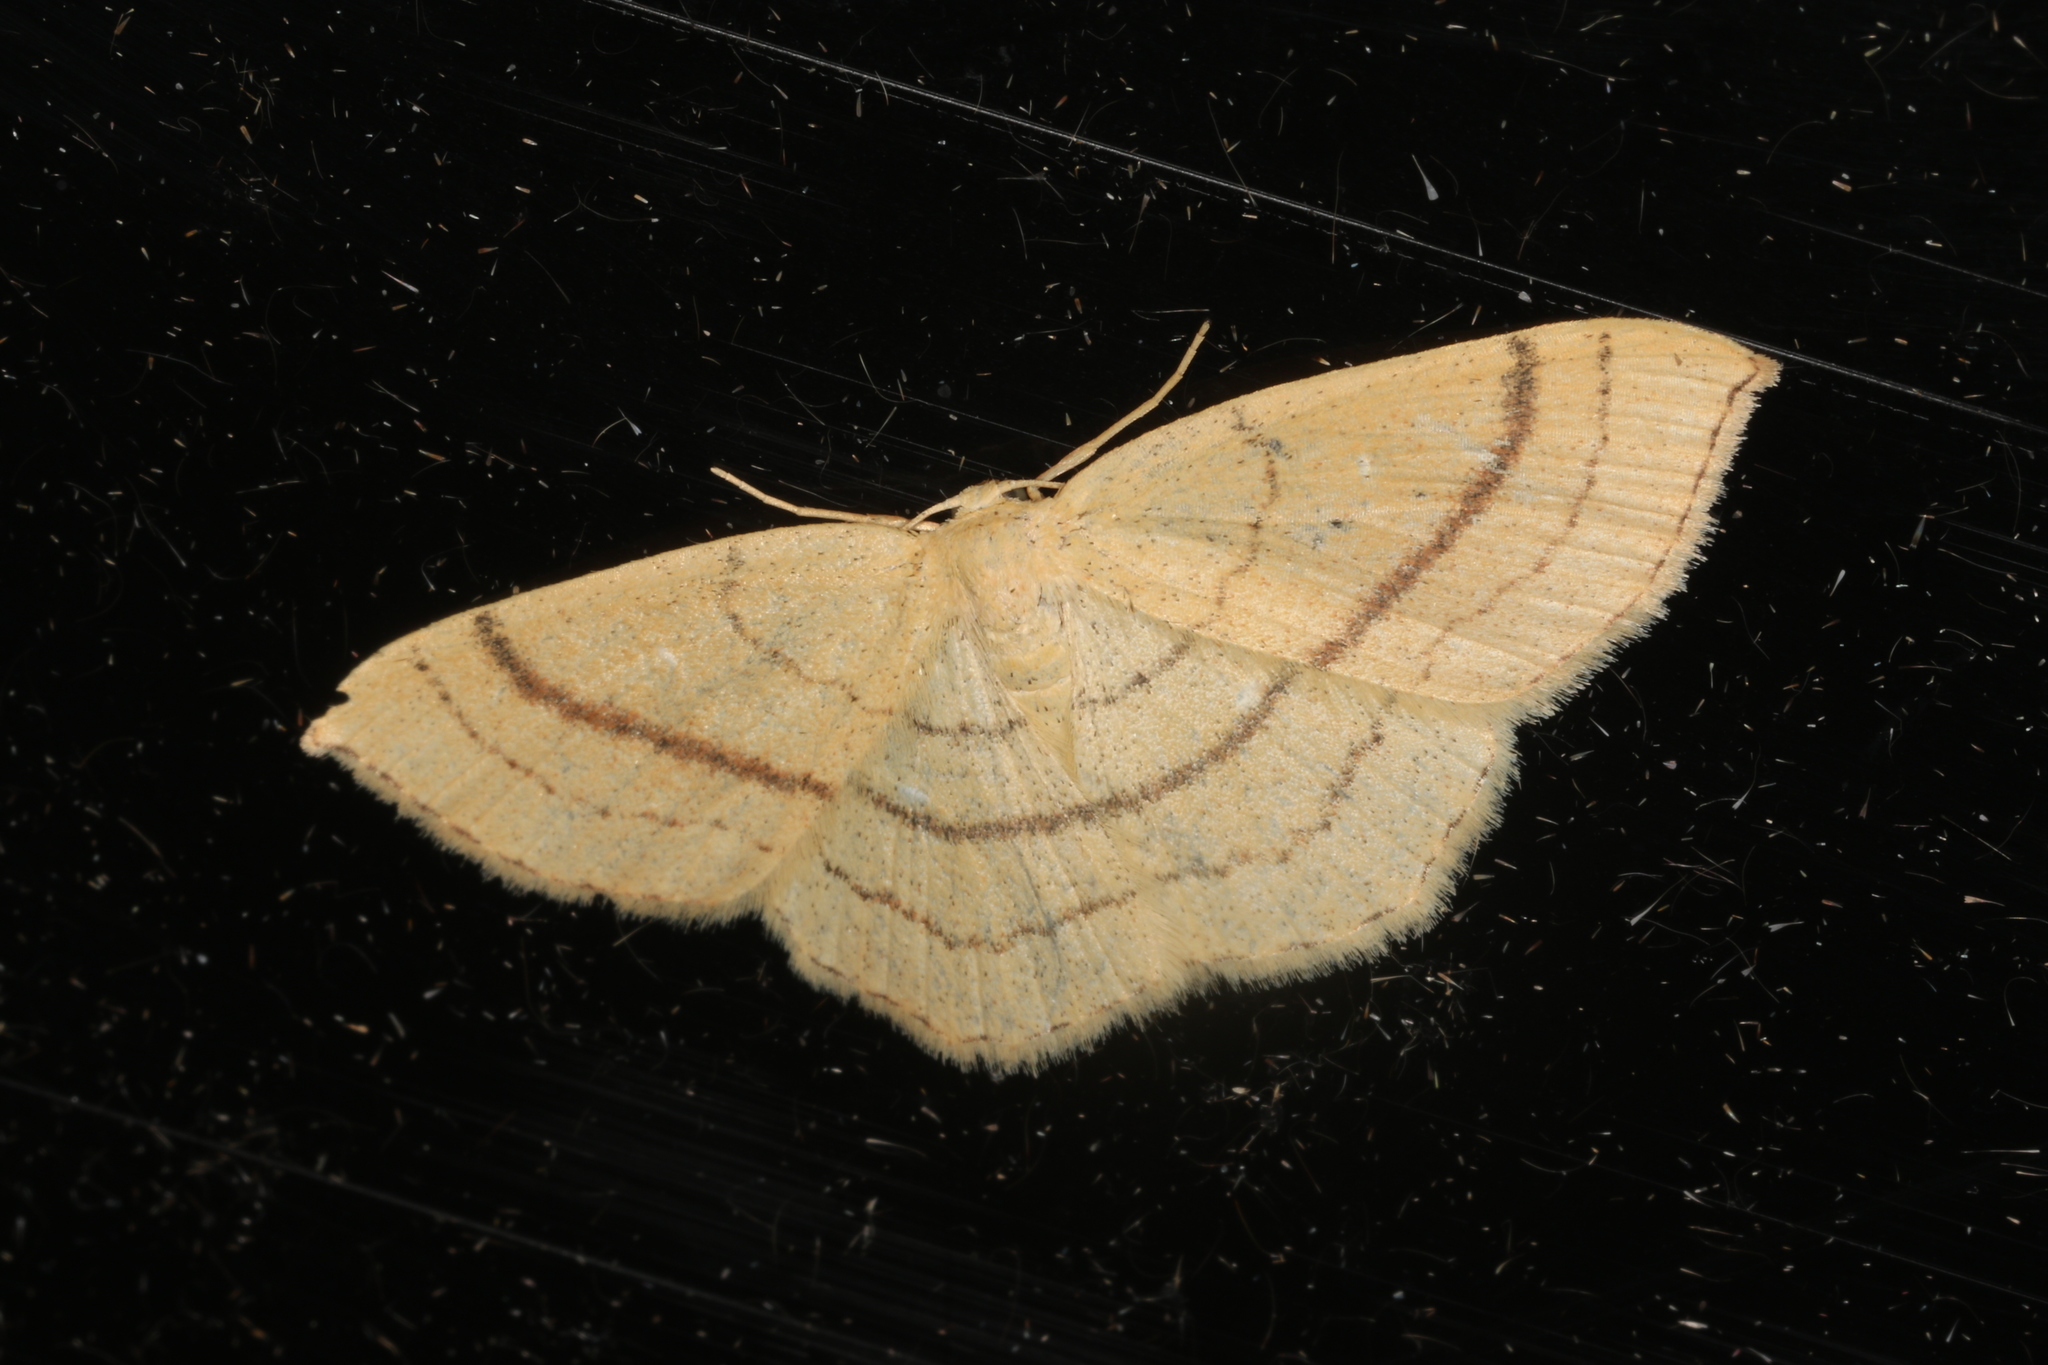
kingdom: Animalia
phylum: Arthropoda
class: Insecta
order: Lepidoptera
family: Geometridae
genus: Cyclophora
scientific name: Cyclophora linearia
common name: Clay triple-lines
